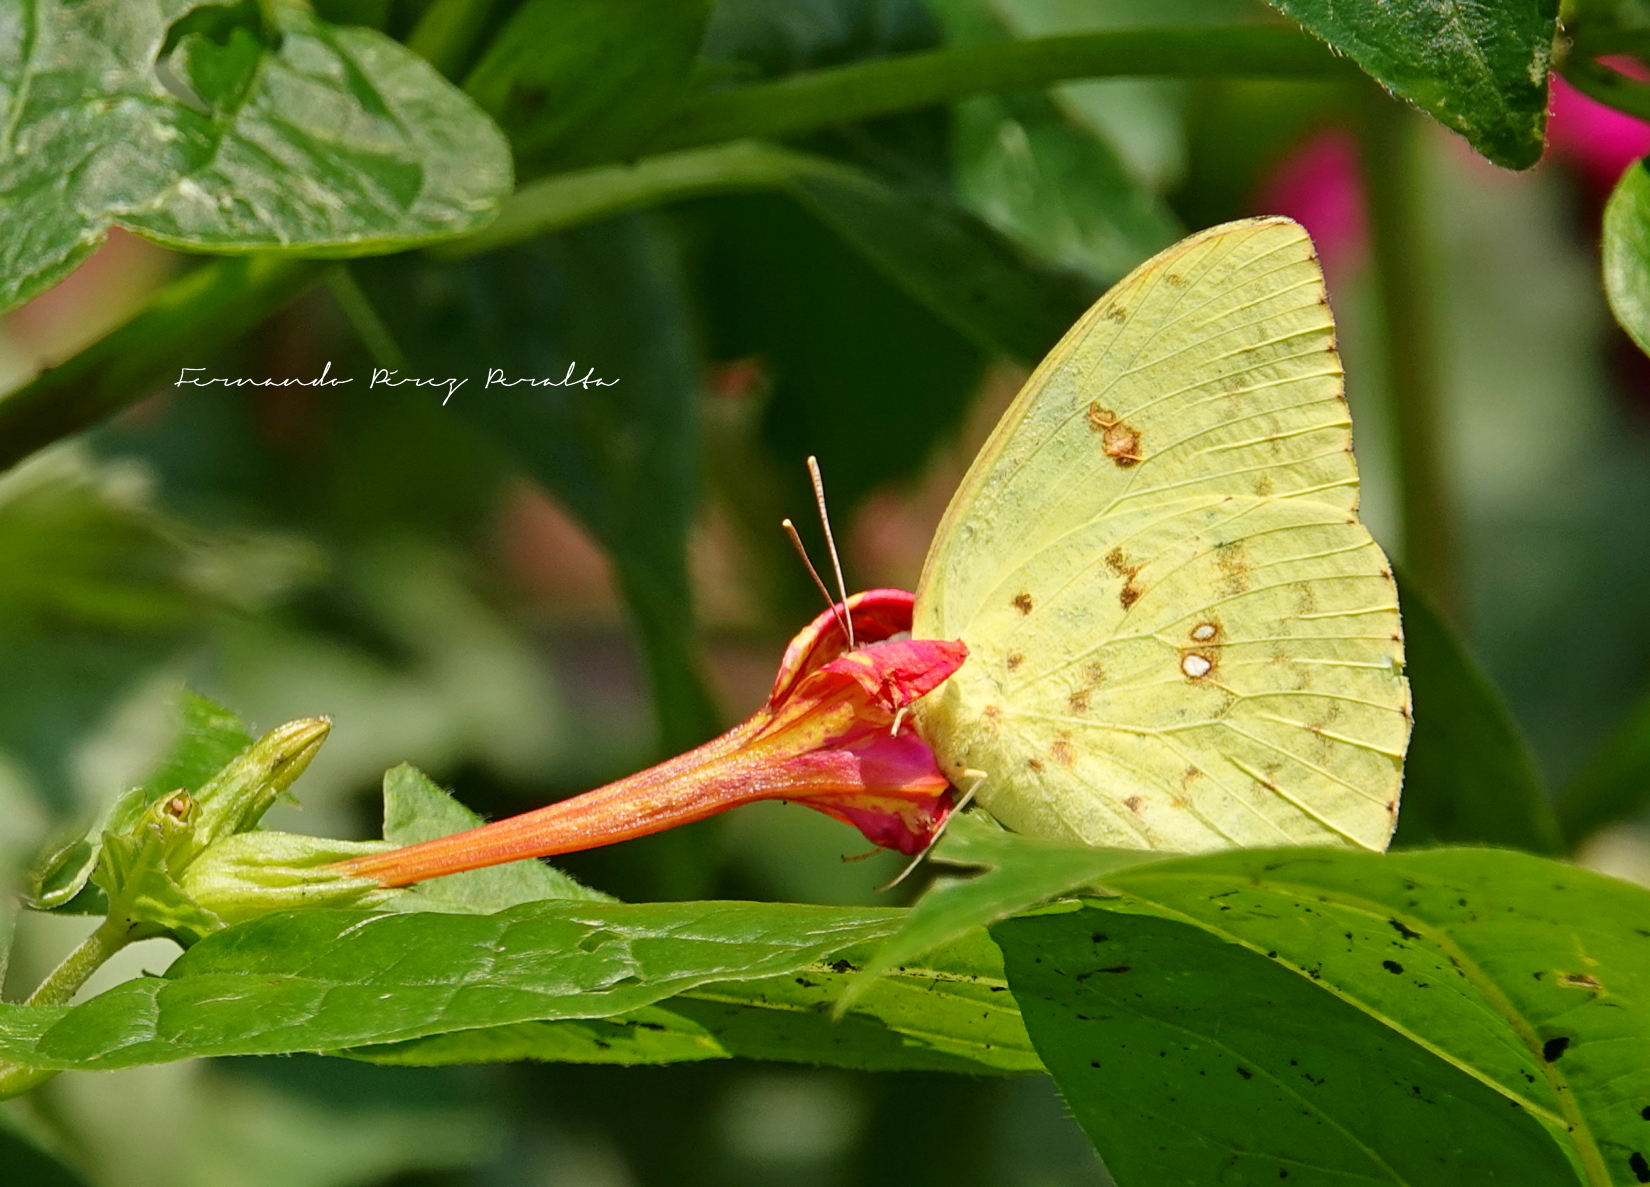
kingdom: Animalia
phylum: Arthropoda
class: Insecta
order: Lepidoptera
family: Pieridae
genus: Phoebis
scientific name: Phoebis sennae
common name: Cloudless sulphur
